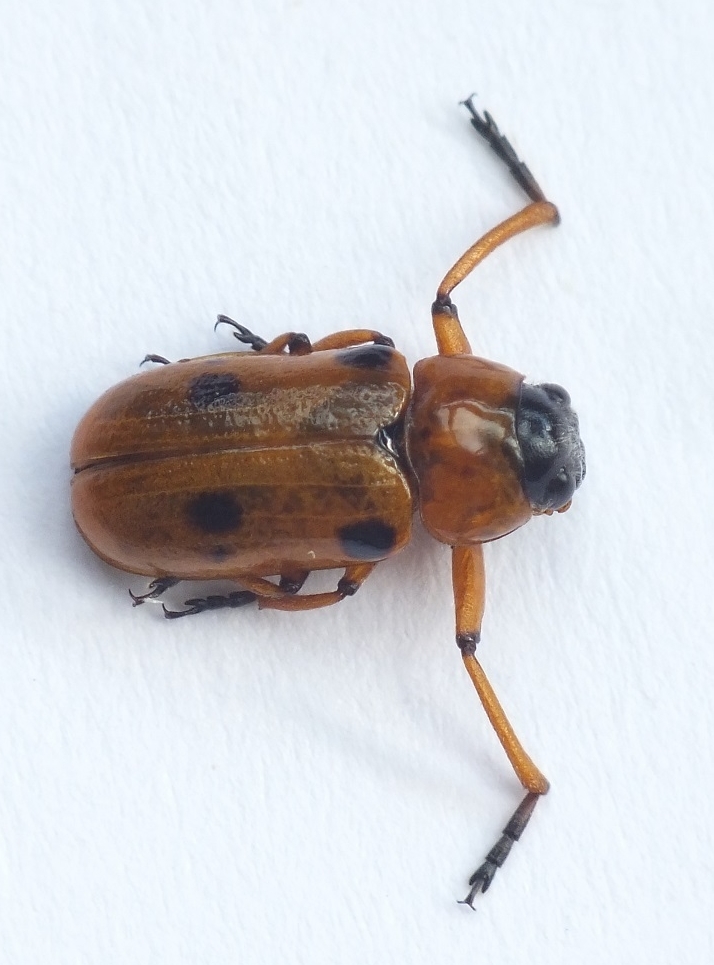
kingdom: Animalia
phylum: Arthropoda
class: Insecta
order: Coleoptera
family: Chrysomelidae
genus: Tituboea
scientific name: Tituboea macropus
